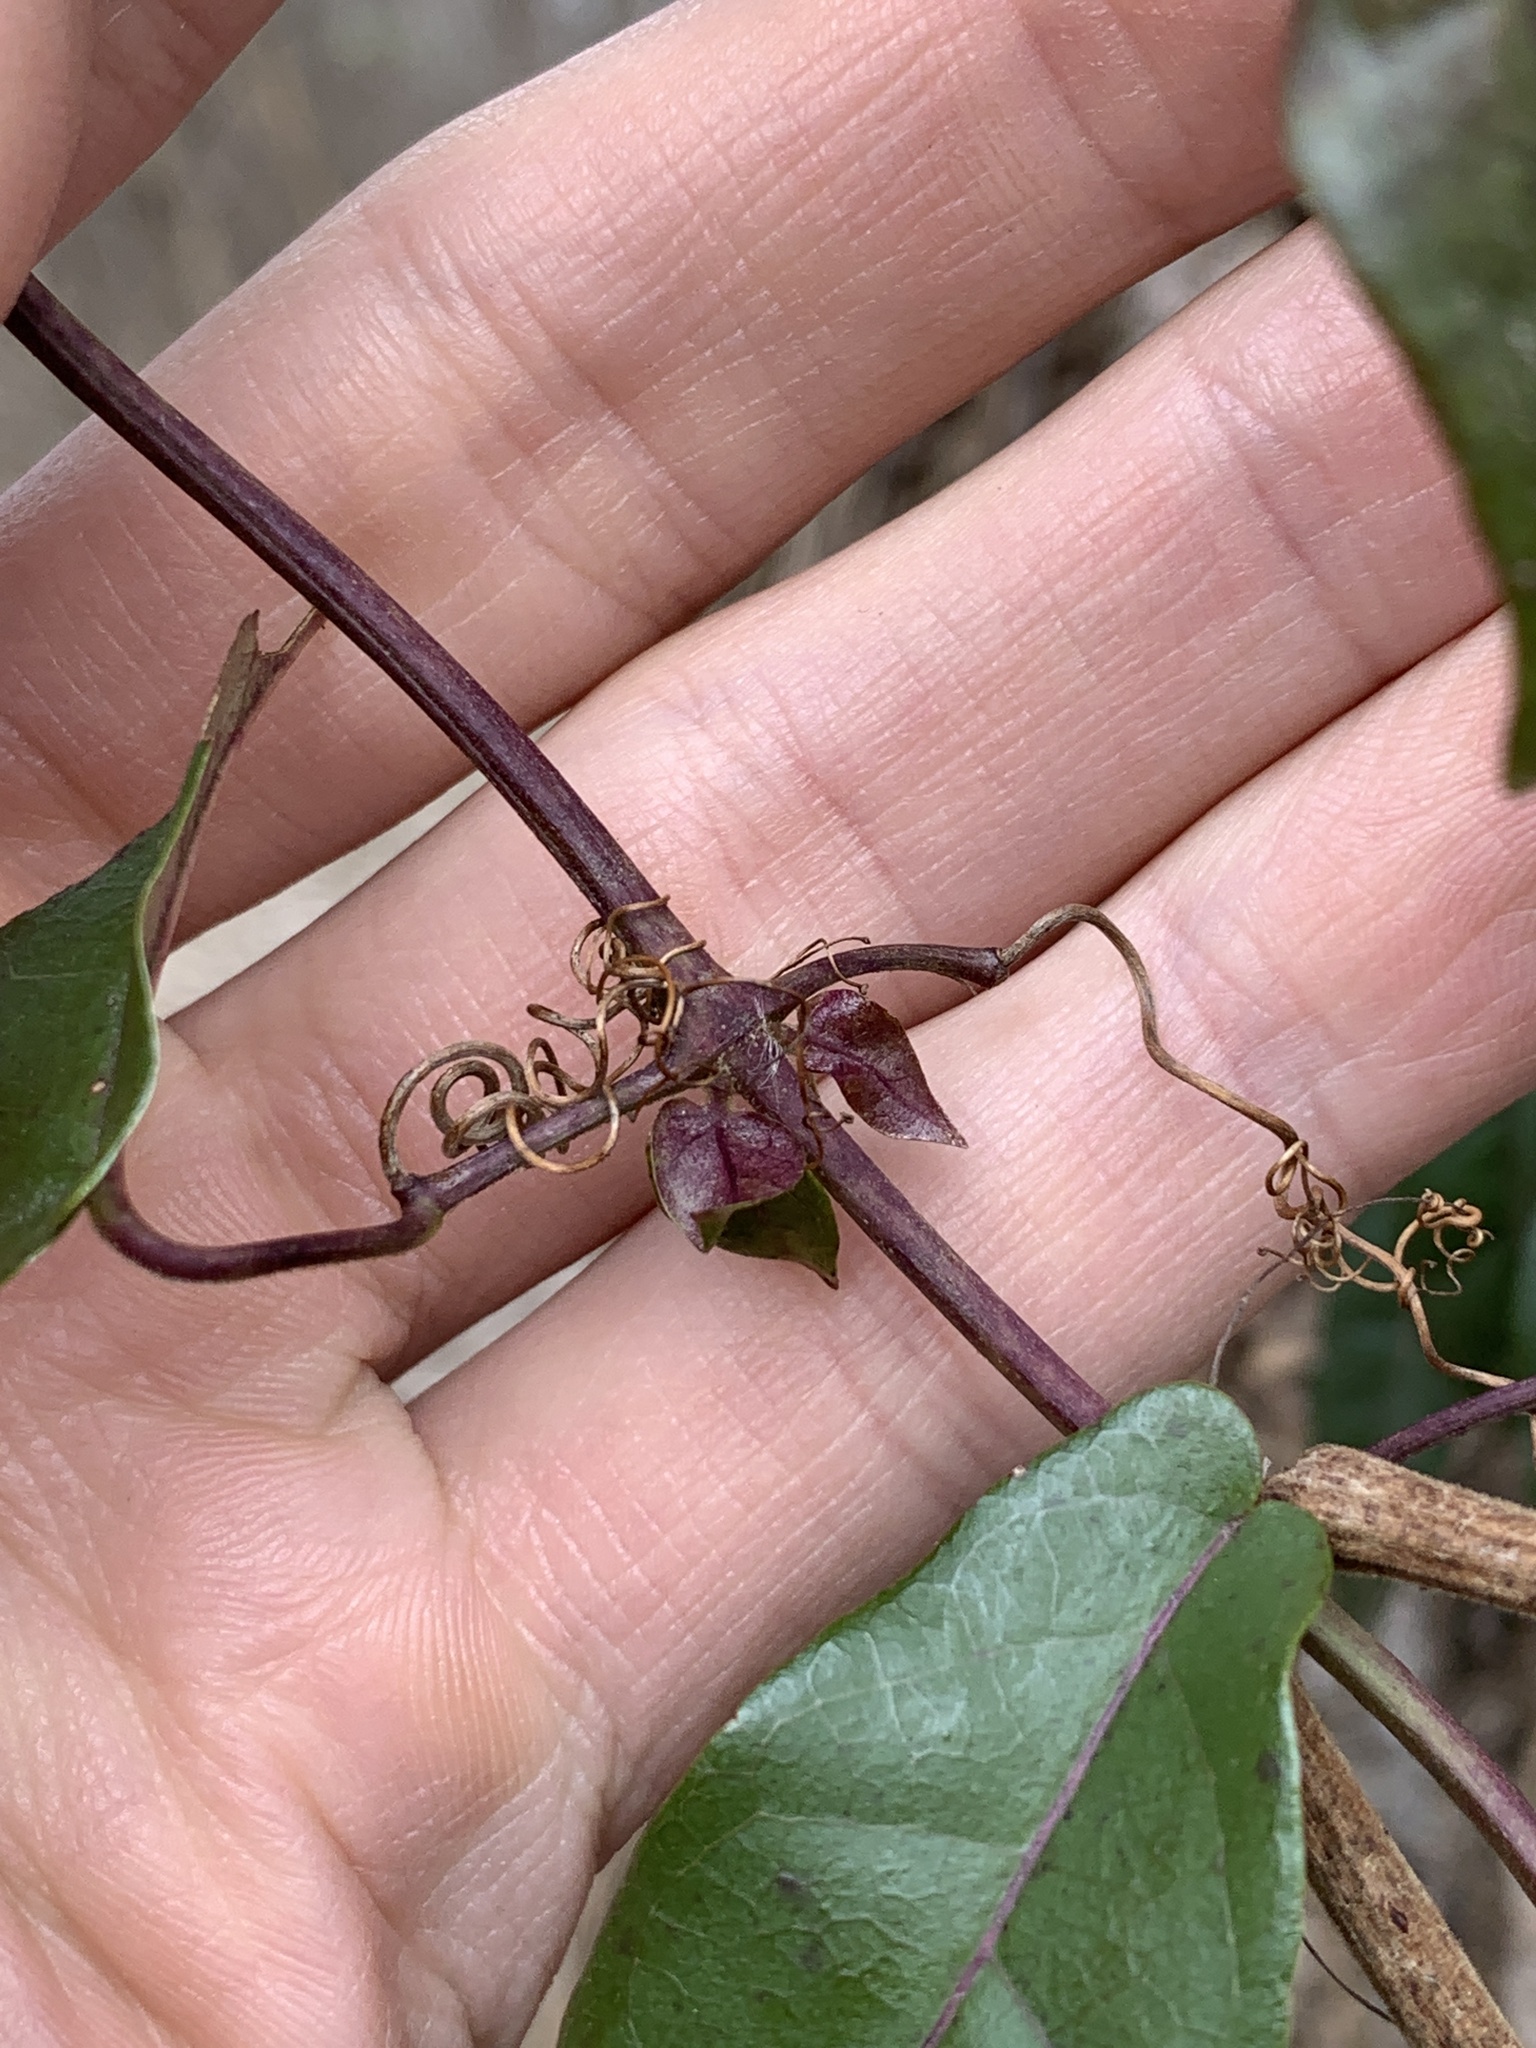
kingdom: Plantae
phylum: Tracheophyta
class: Magnoliopsida
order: Lamiales
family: Bignoniaceae
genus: Bignonia
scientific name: Bignonia capreolata
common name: Crossvine
